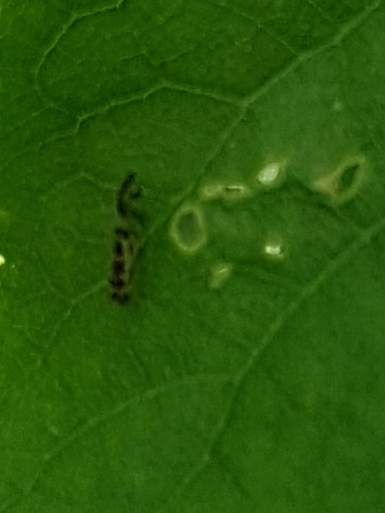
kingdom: Animalia
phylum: Arthropoda
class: Insecta
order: Psocodea
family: Stenopsocidae
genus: Graphopsocus
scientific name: Graphopsocus cruciatus
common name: Lizard bark louse
